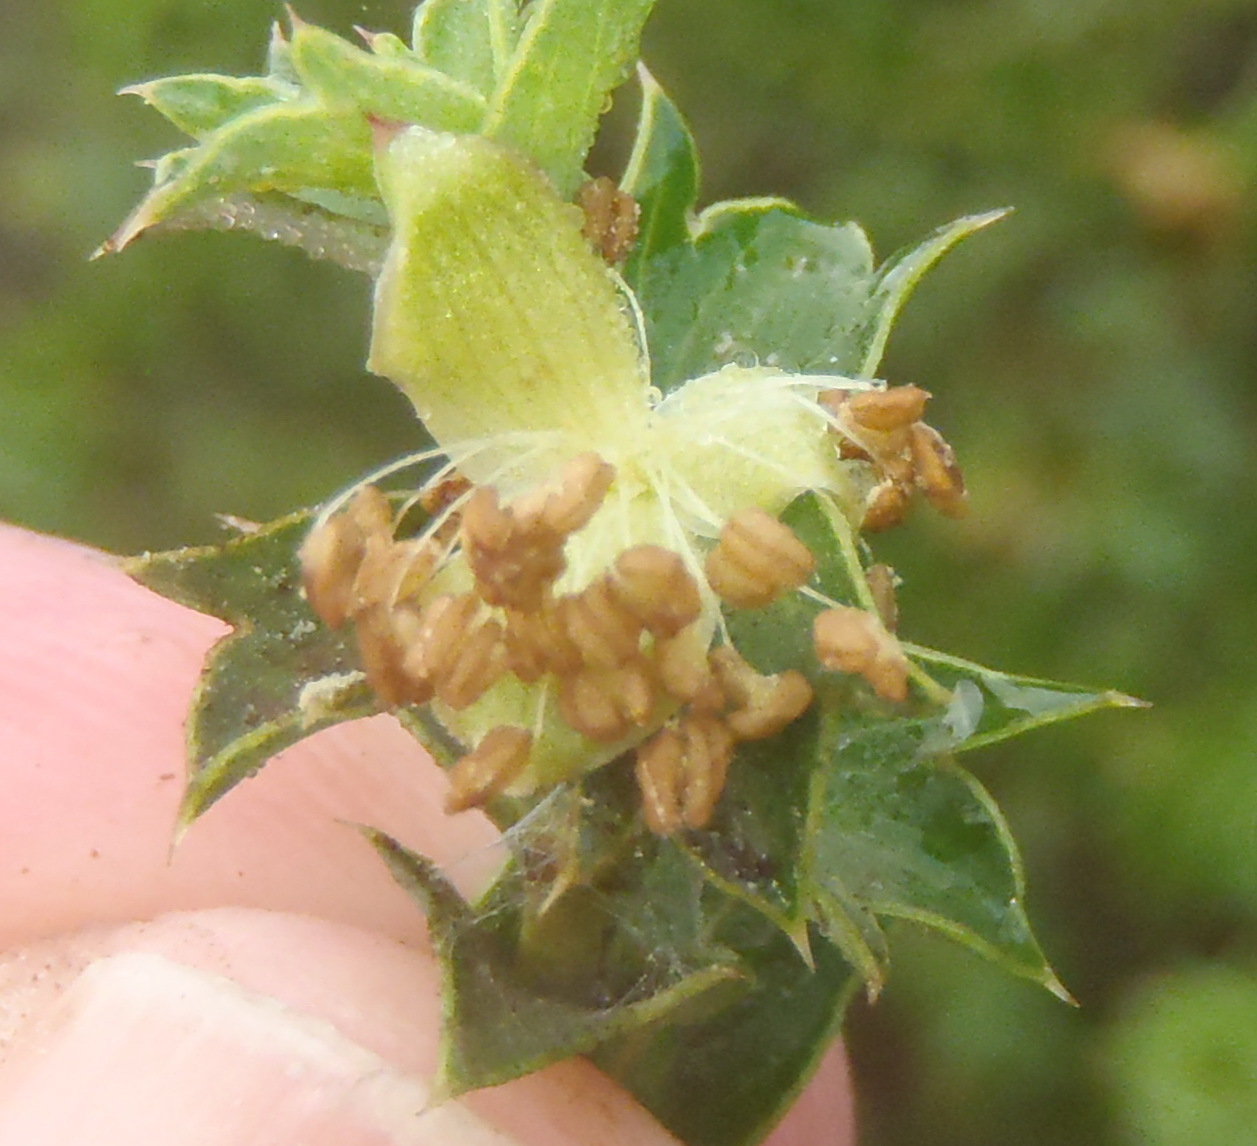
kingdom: Plantae
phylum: Tracheophyta
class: Magnoliopsida
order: Rosales
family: Rosaceae
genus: Cliffortia
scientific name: Cliffortia schlechteri
